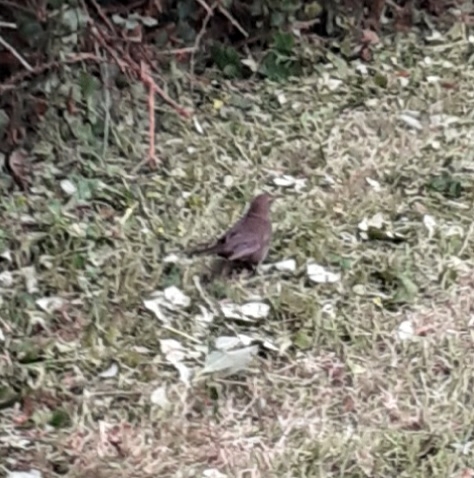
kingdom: Animalia
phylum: Chordata
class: Aves
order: Passeriformes
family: Turdidae
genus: Turdus
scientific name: Turdus merula
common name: Common blackbird
